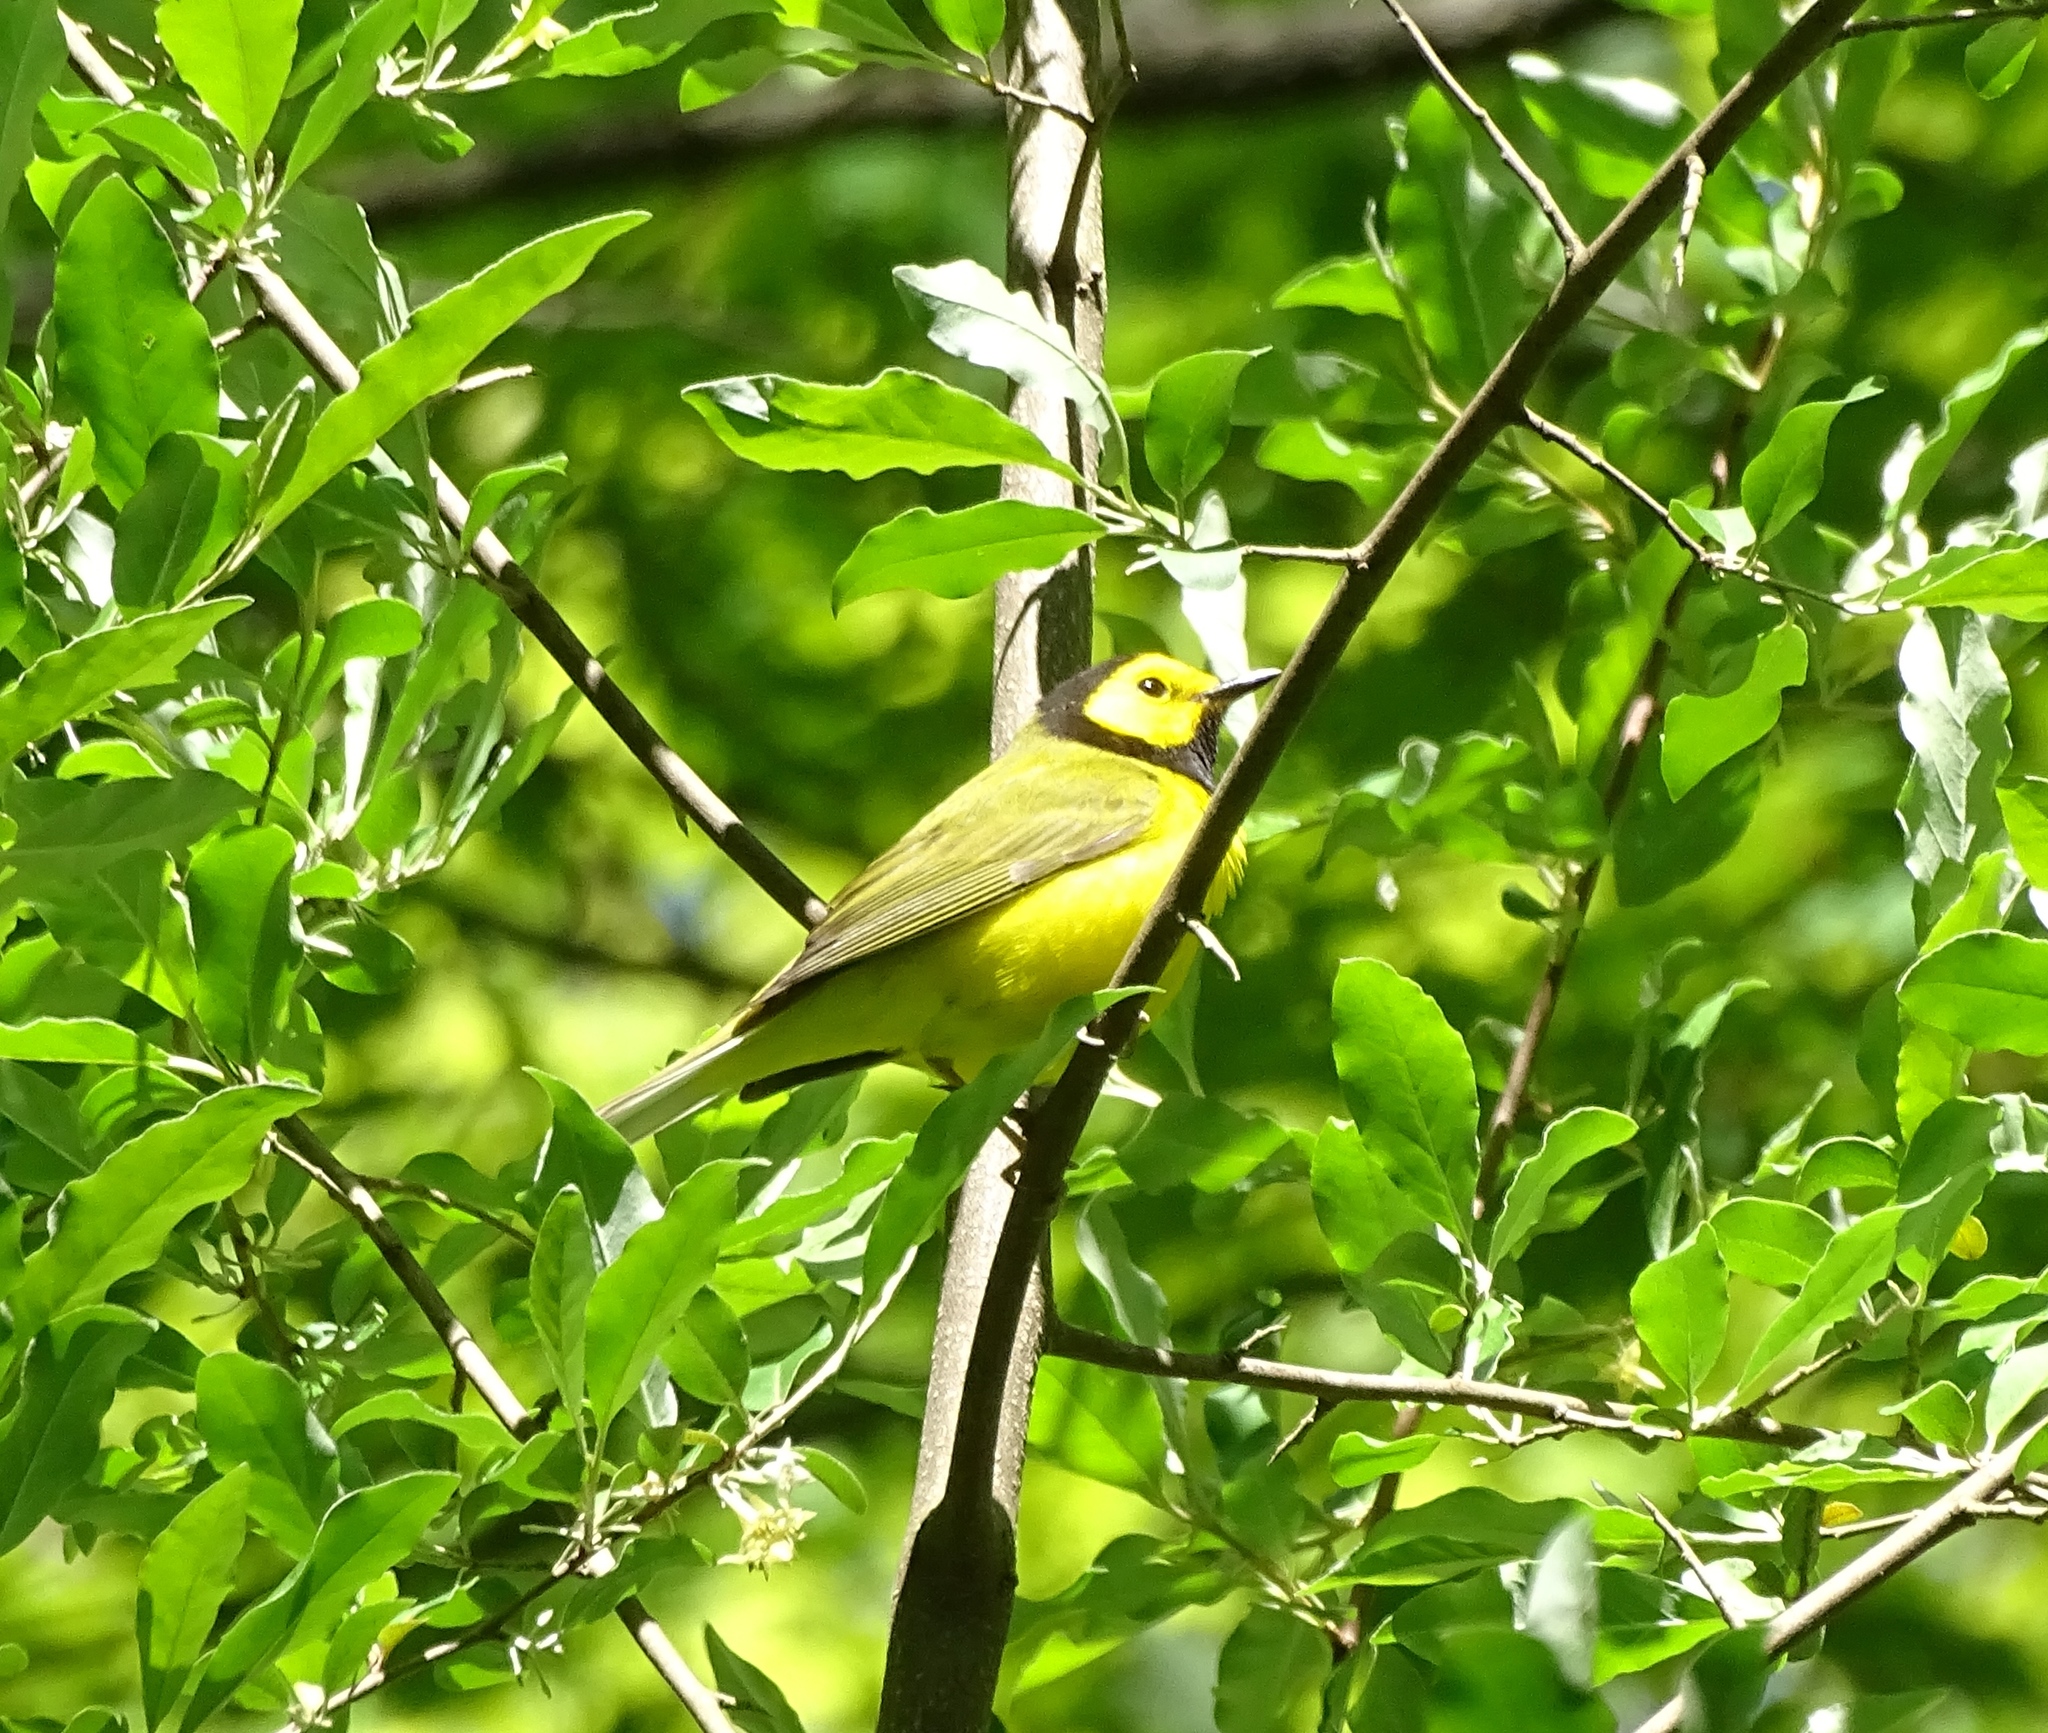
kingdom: Animalia
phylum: Chordata
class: Aves
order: Passeriformes
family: Parulidae
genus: Setophaga
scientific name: Setophaga citrina
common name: Hooded warbler
